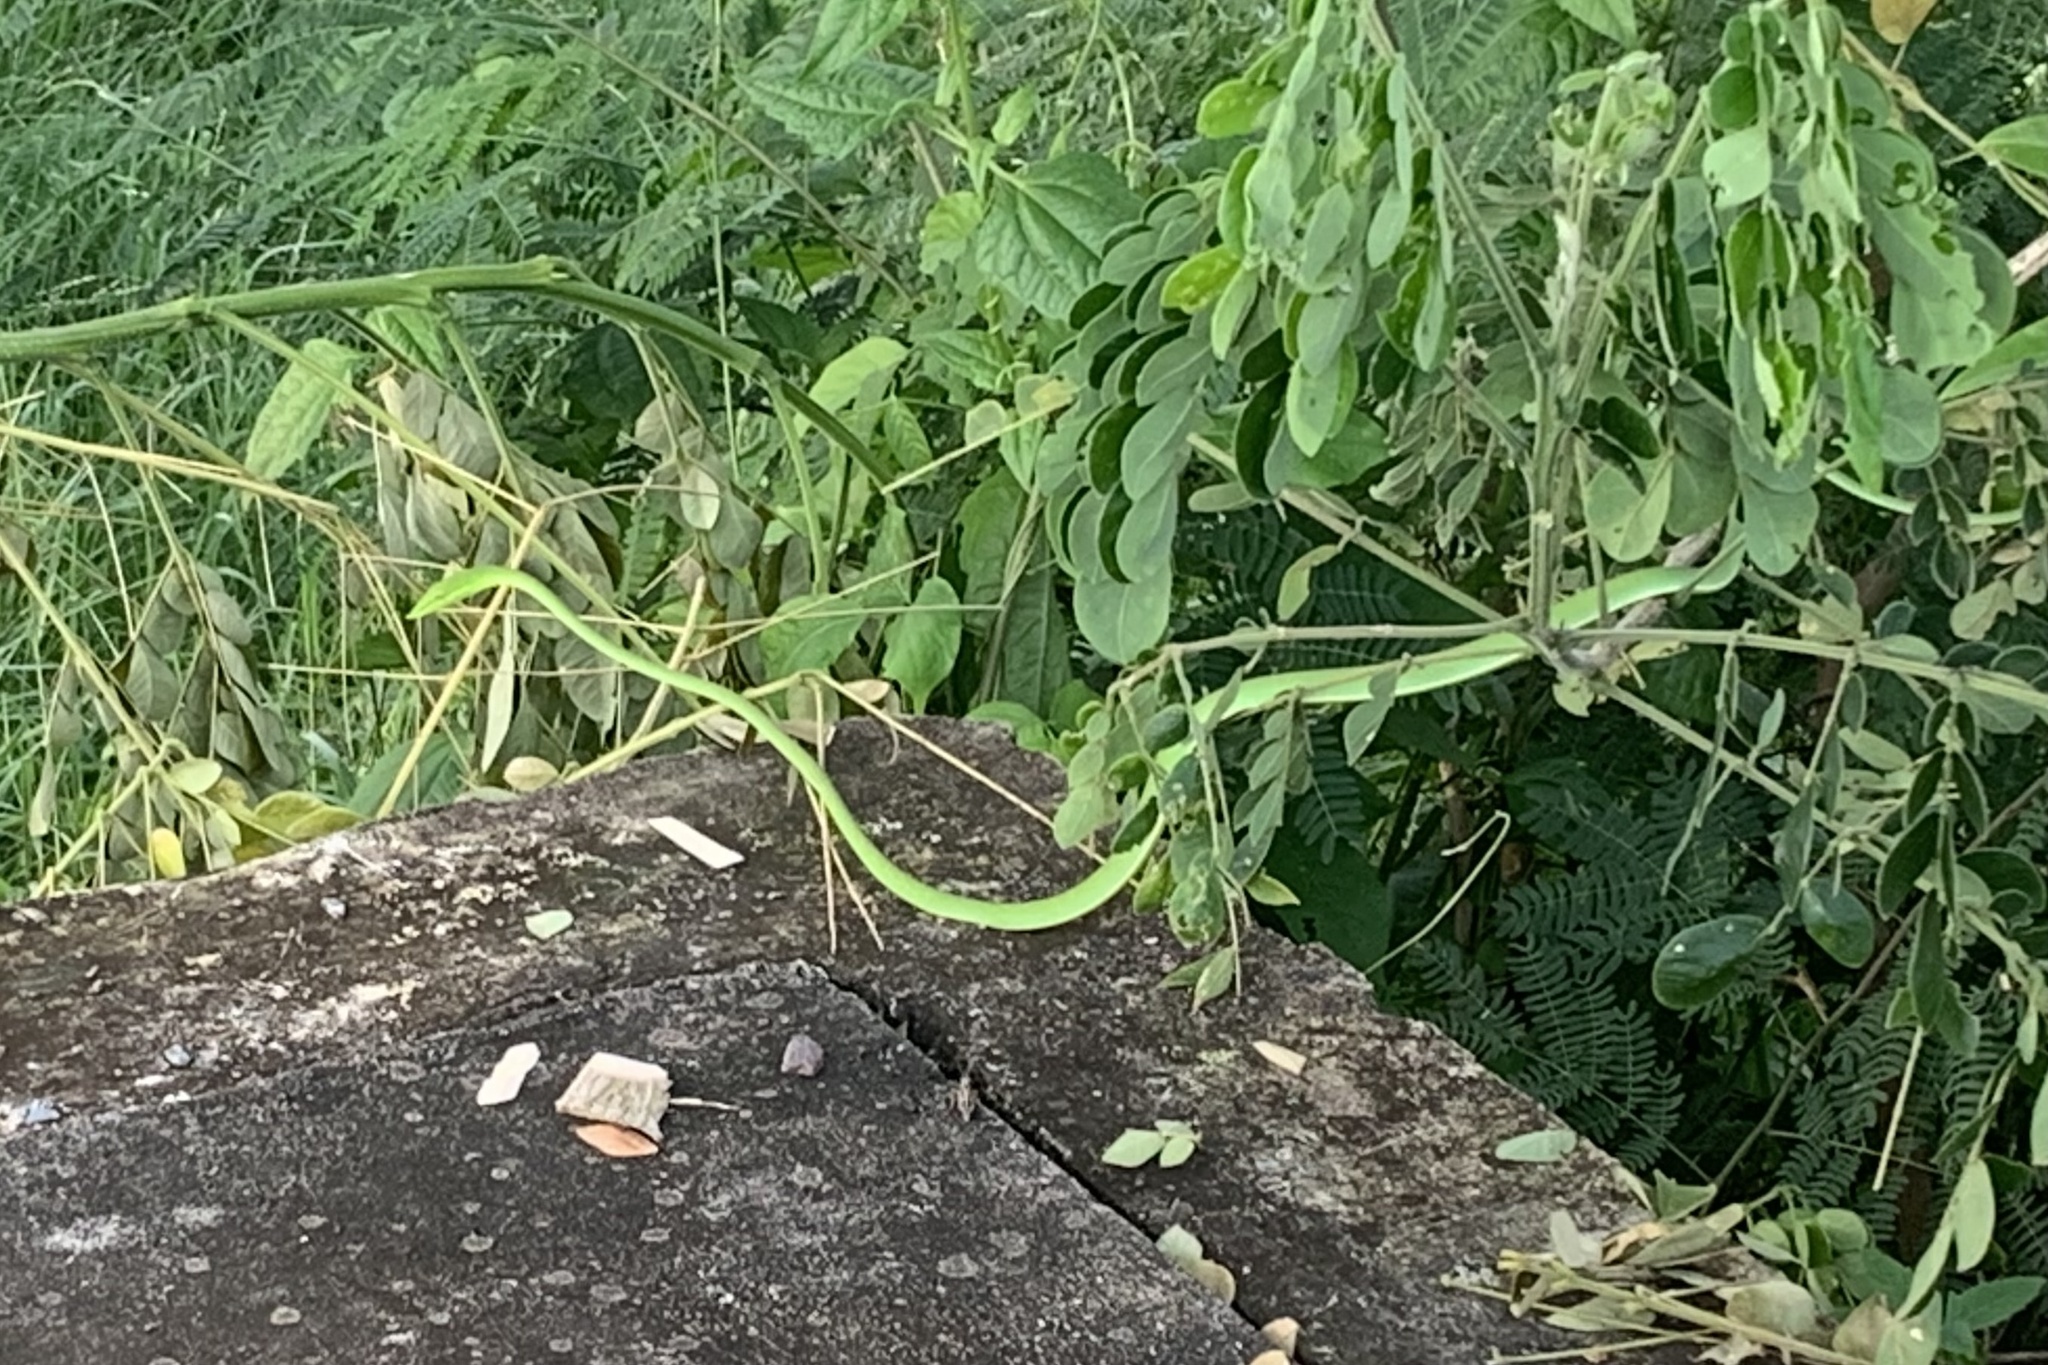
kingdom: Animalia
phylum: Chordata
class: Squamata
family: Colubridae
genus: Ahaetulla
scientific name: Ahaetulla
